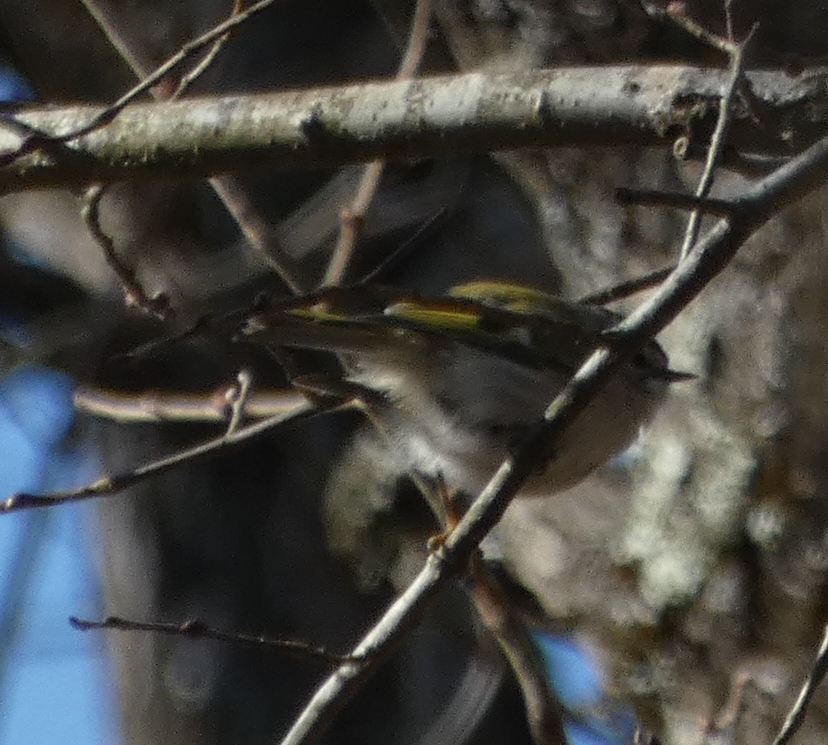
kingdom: Animalia
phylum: Chordata
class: Aves
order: Passeriformes
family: Regulidae
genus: Regulus
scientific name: Regulus satrapa
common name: Golden-crowned kinglet
